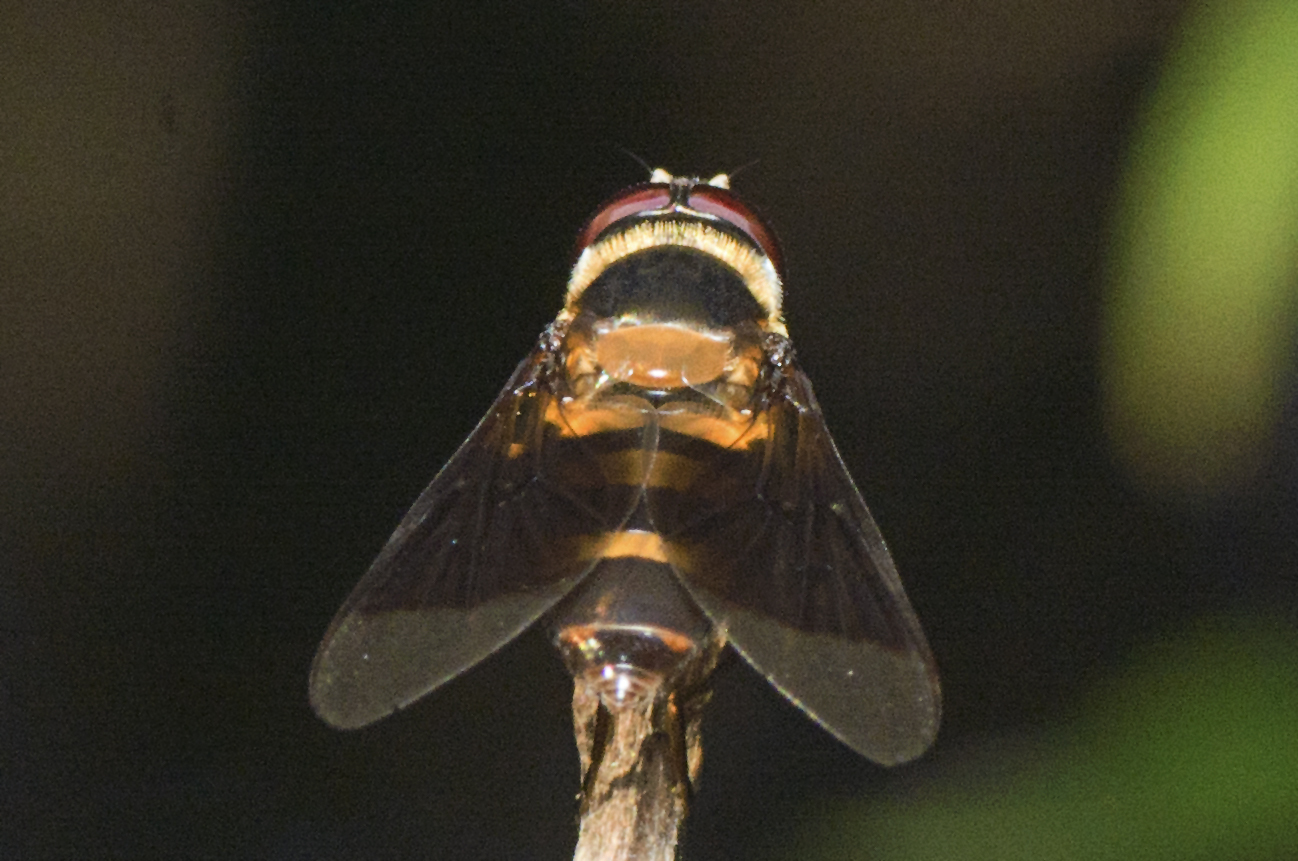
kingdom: Animalia
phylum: Arthropoda
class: Insecta
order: Diptera
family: Syrphidae
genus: Dideopsis
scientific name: Dideopsis aegrota
